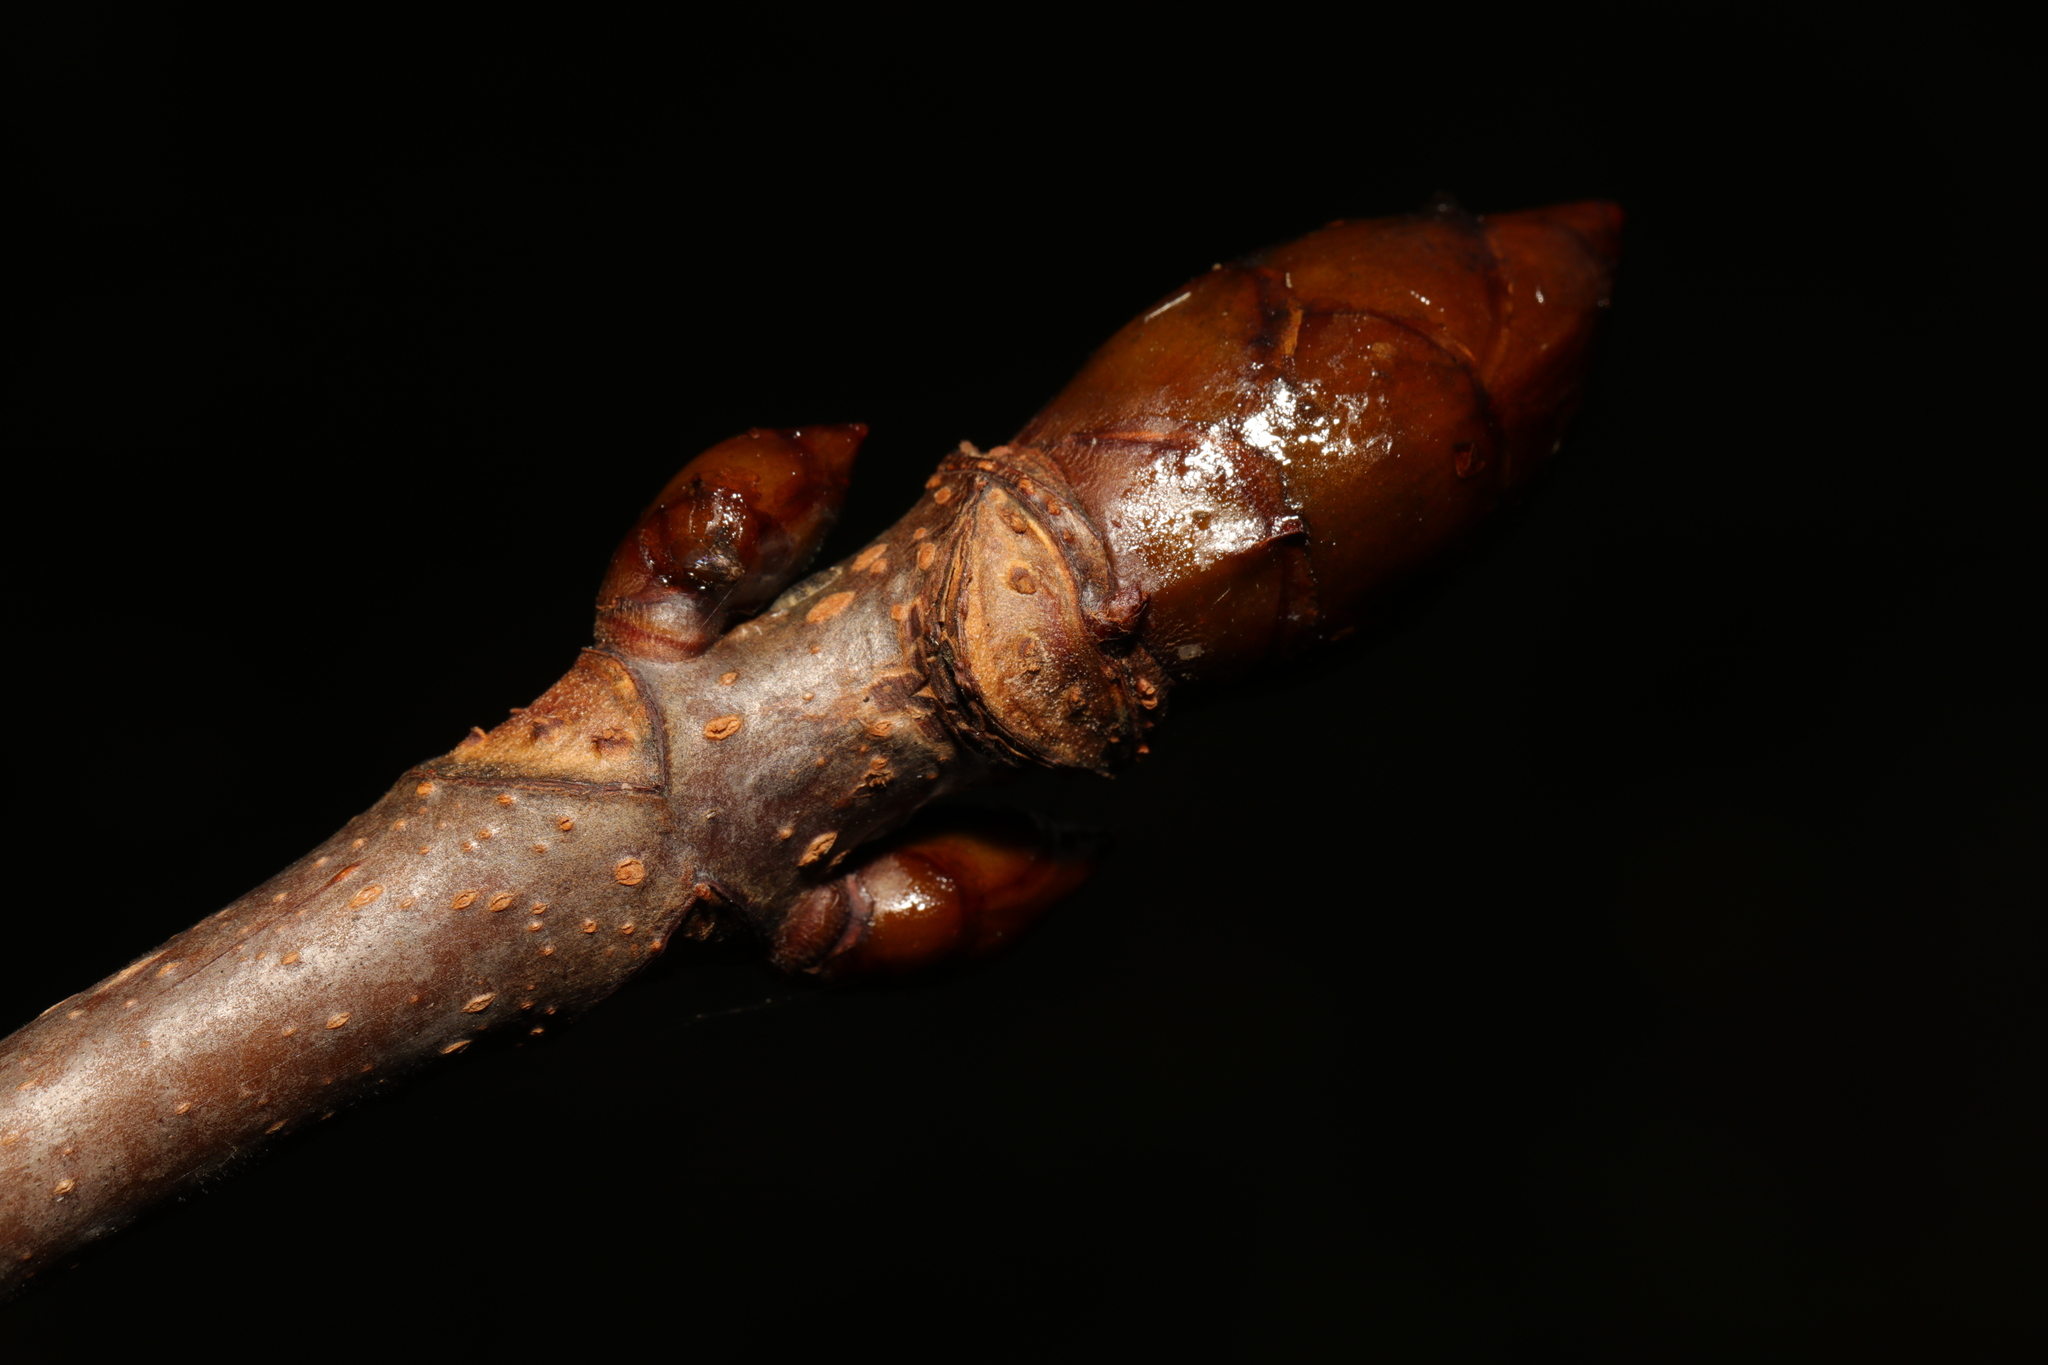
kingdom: Plantae
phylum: Tracheophyta
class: Magnoliopsida
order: Sapindales
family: Sapindaceae
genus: Aesculus
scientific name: Aesculus hippocastanum
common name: Horse-chestnut
